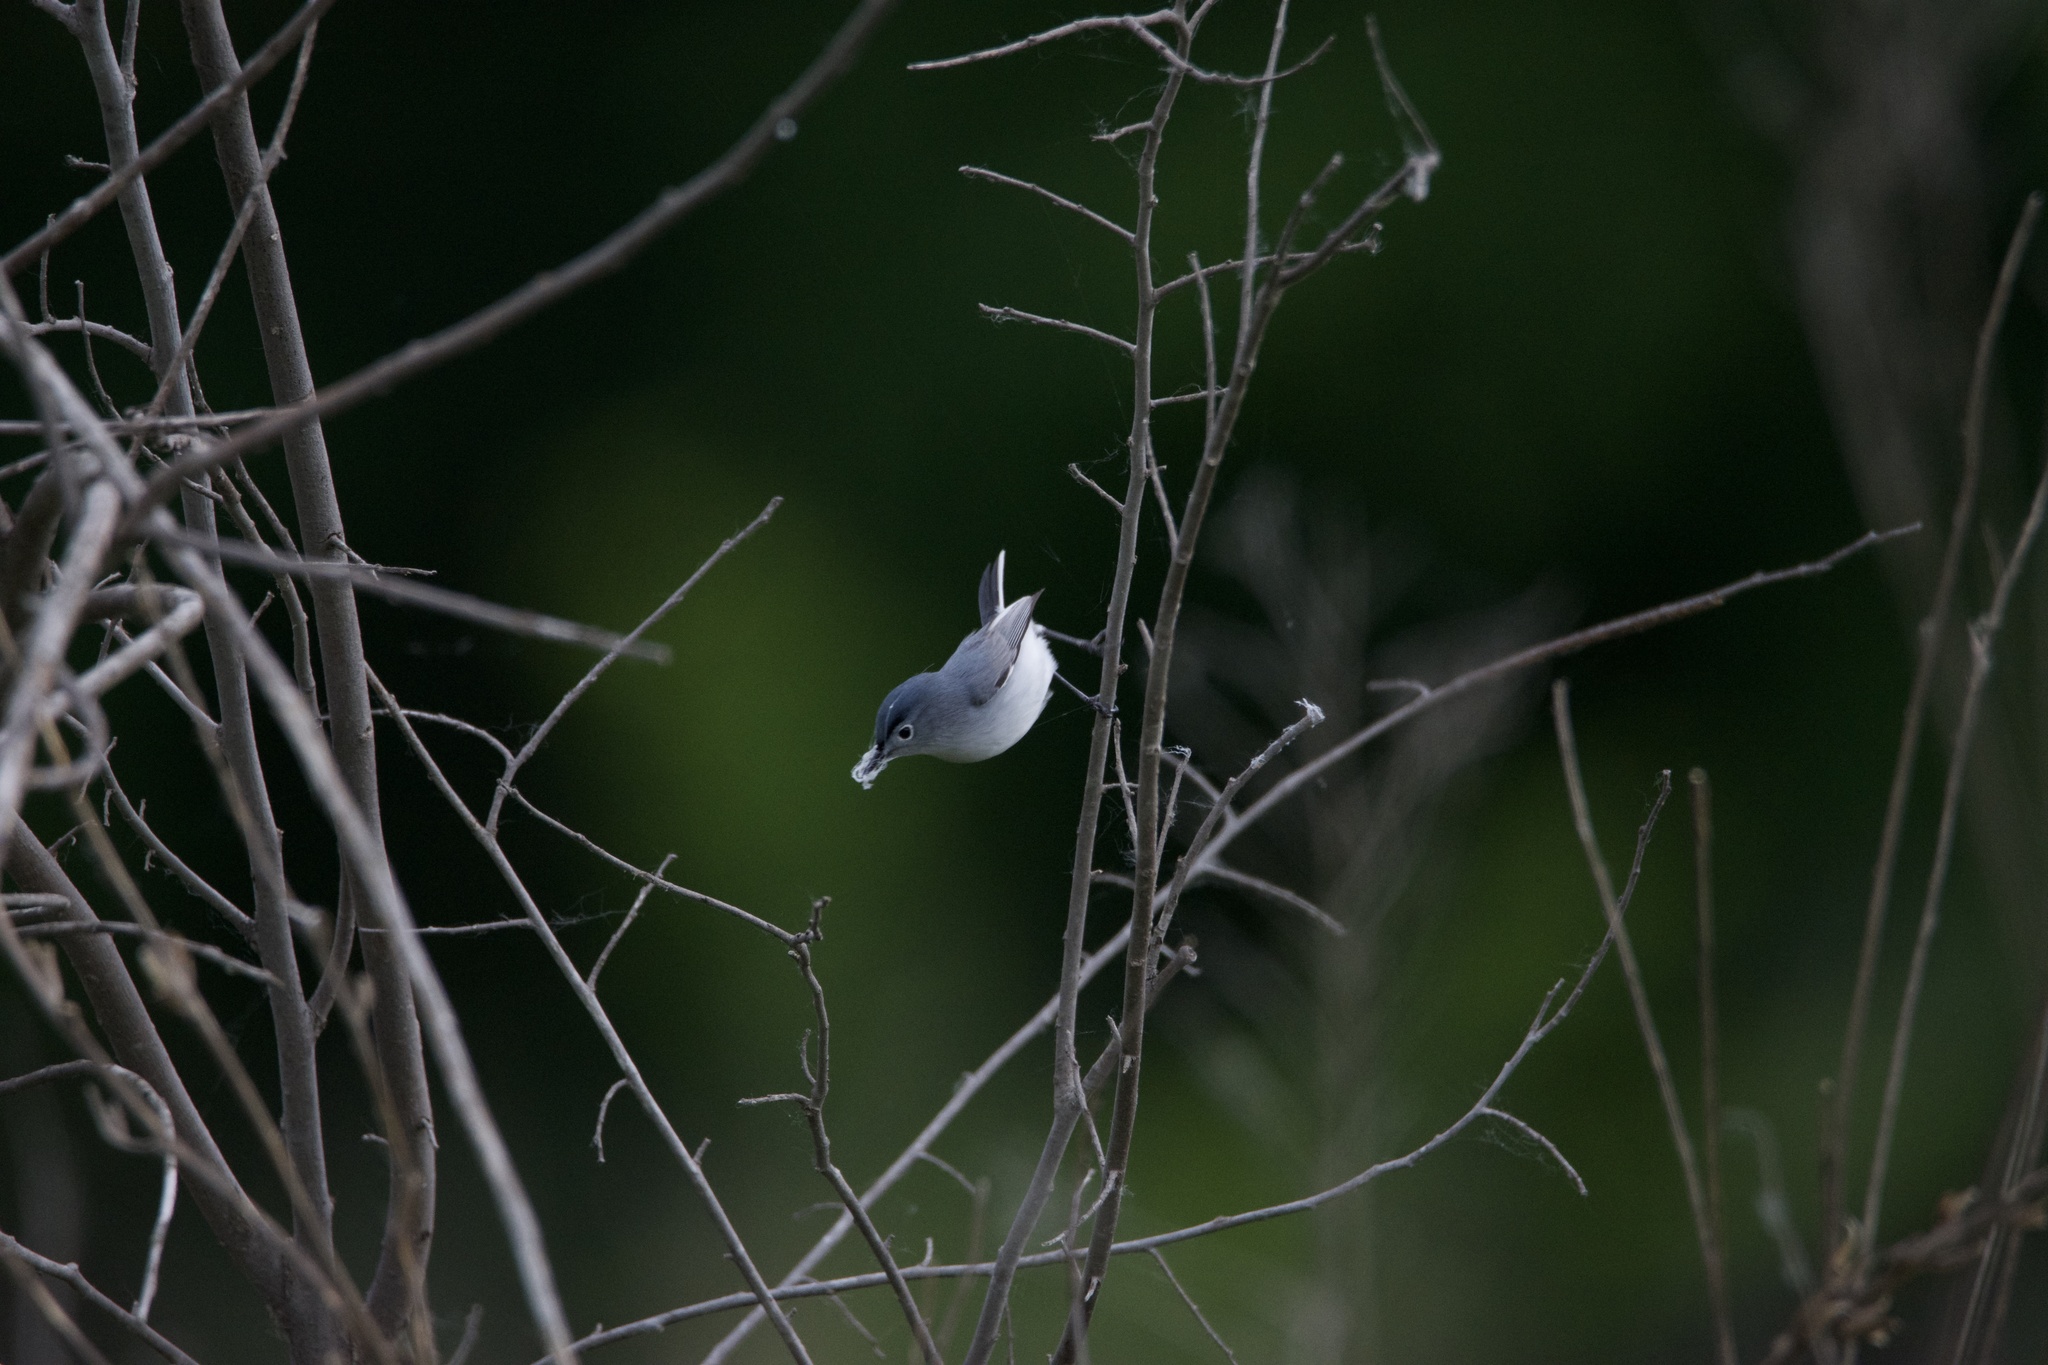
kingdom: Animalia
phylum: Chordata
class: Aves
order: Passeriformes
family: Polioptilidae
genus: Polioptila
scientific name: Polioptila caerulea
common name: Blue-gray gnatcatcher
